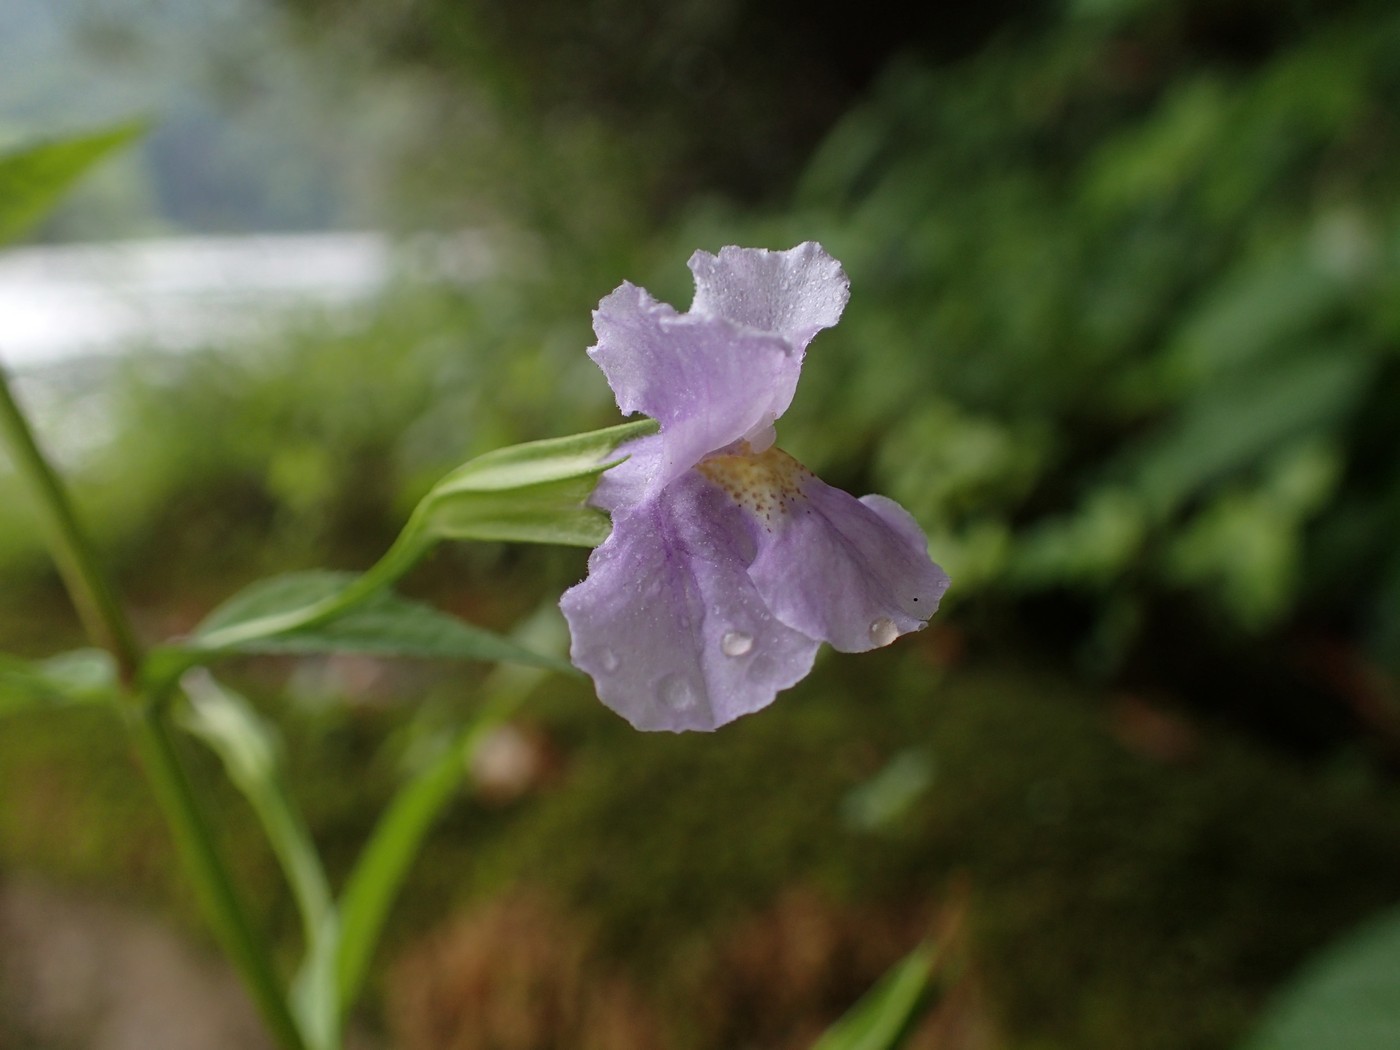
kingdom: Plantae
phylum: Tracheophyta
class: Magnoliopsida
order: Lamiales
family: Phrymaceae
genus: Mimulus
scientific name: Mimulus ringens
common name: Allegheny monkeyflower
